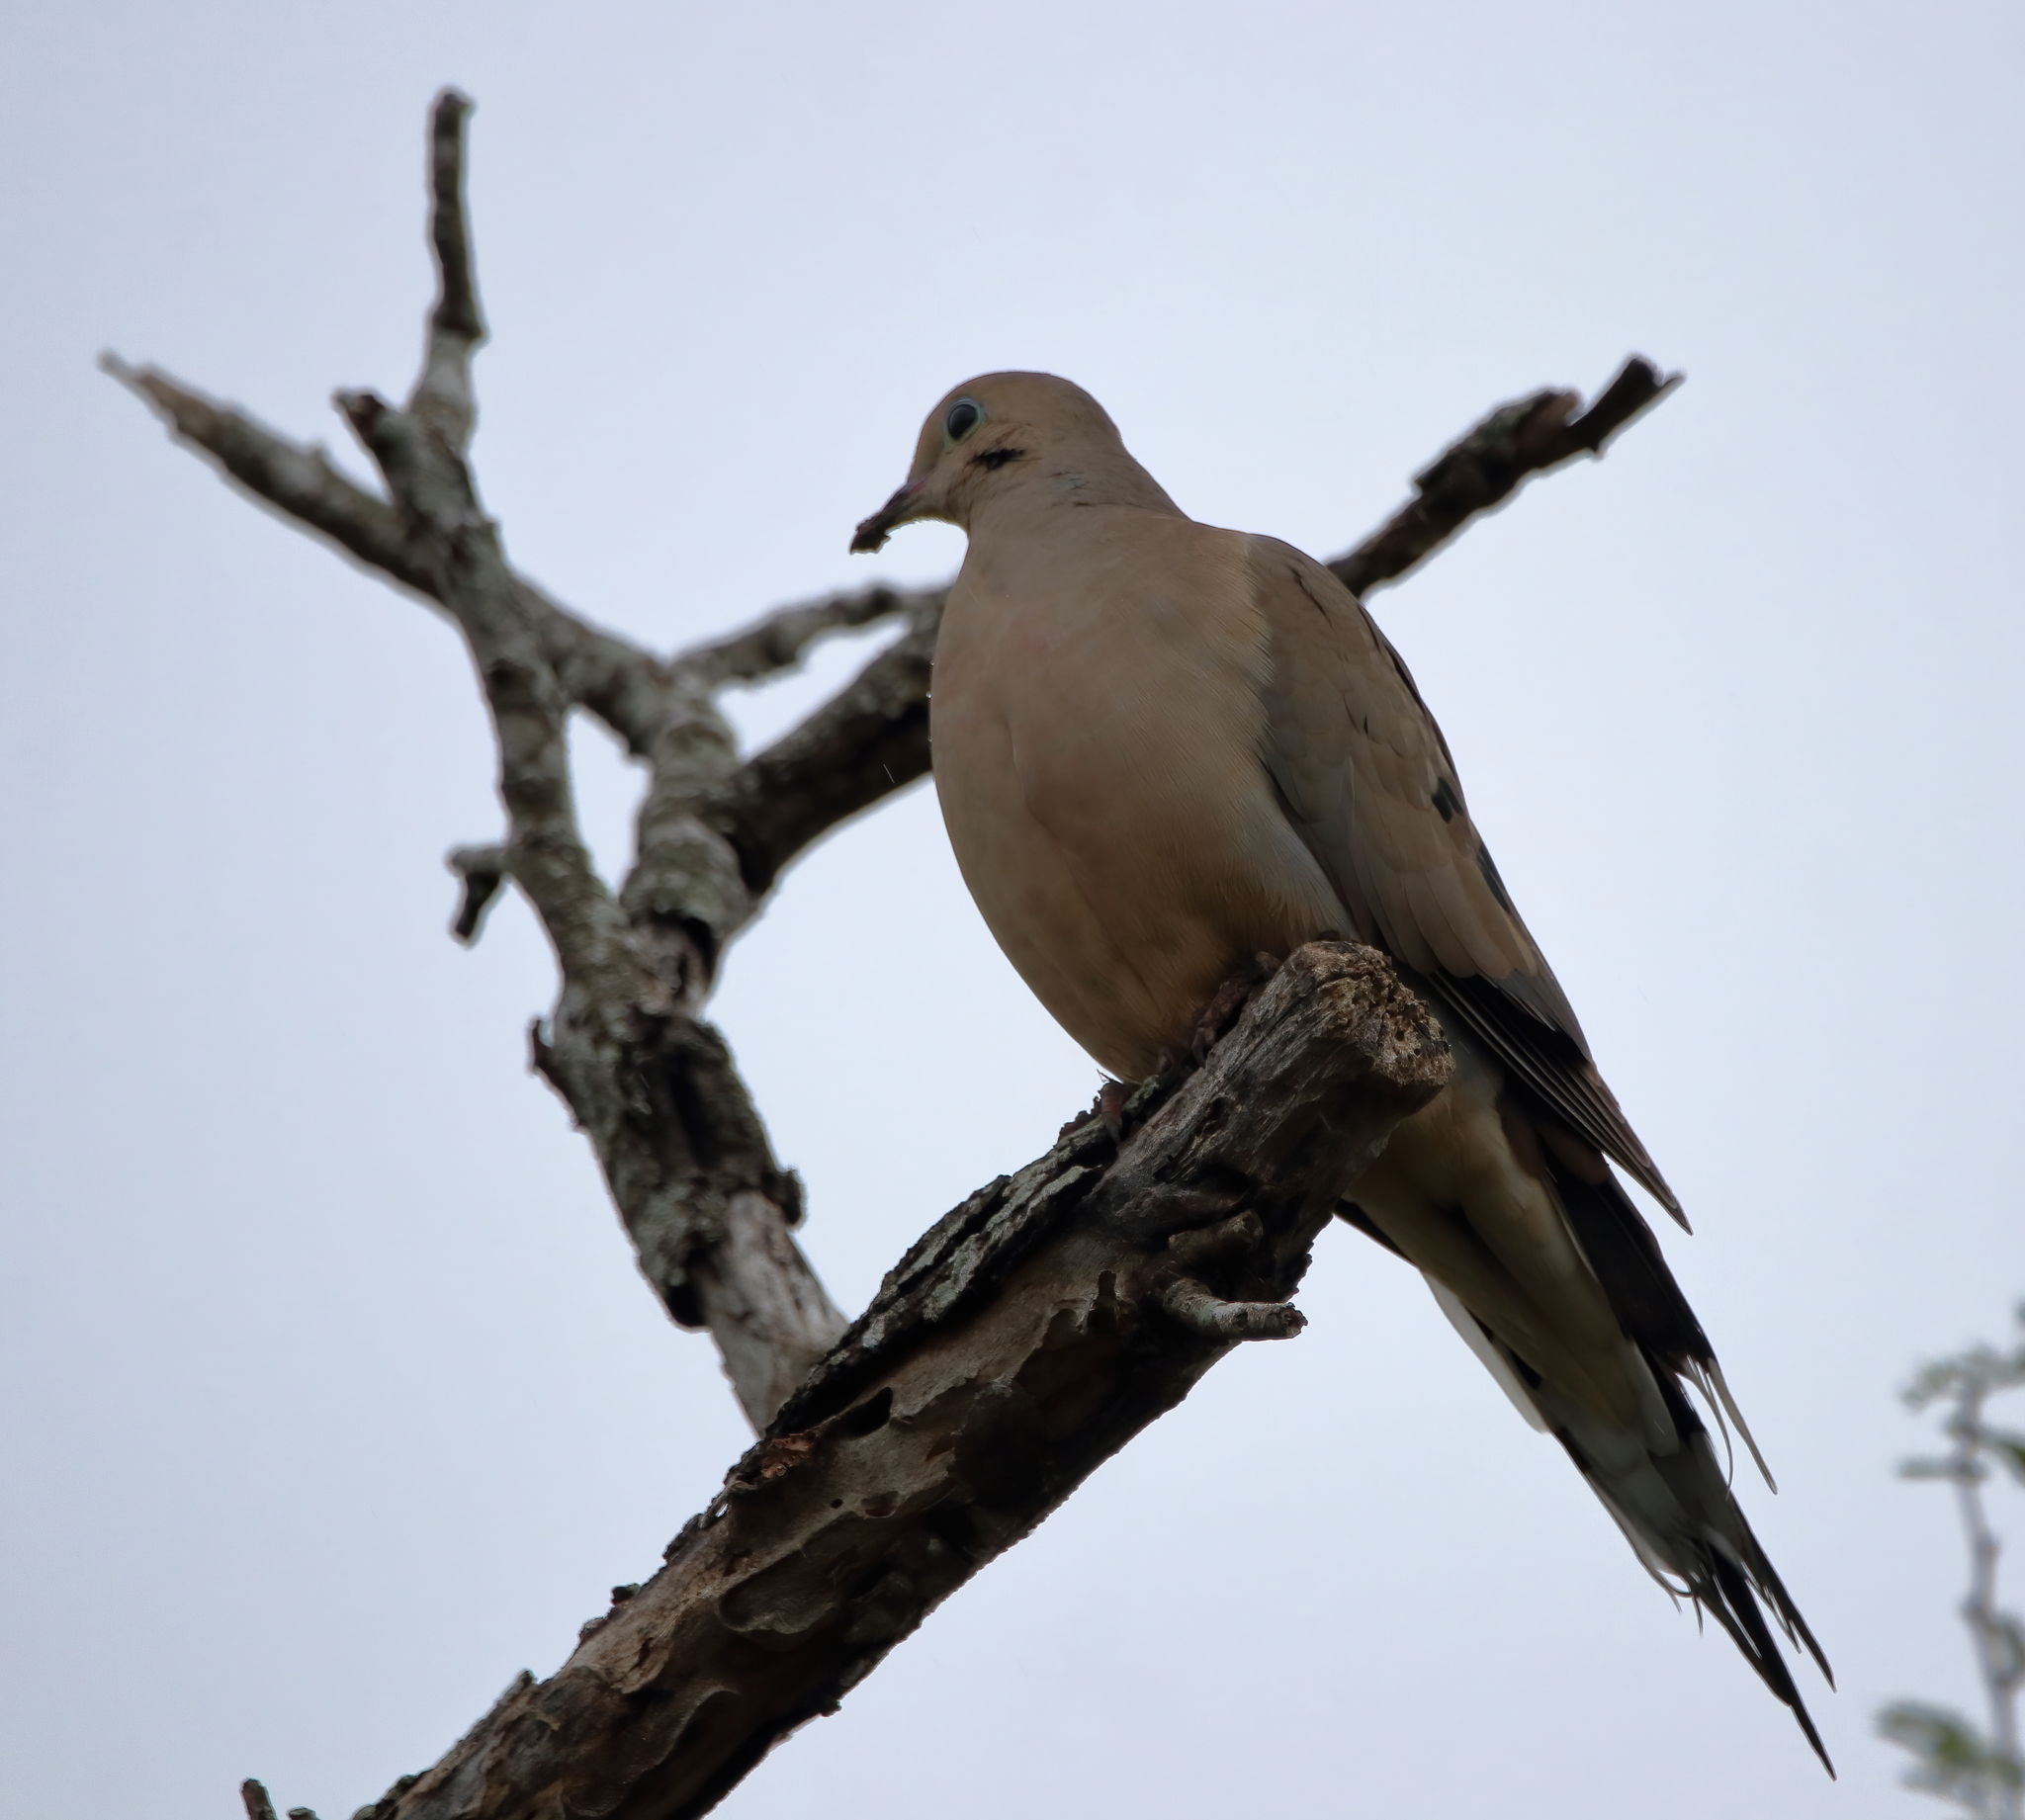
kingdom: Animalia
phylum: Chordata
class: Aves
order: Columbiformes
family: Columbidae
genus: Zenaida
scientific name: Zenaida macroura
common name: Mourning dove
